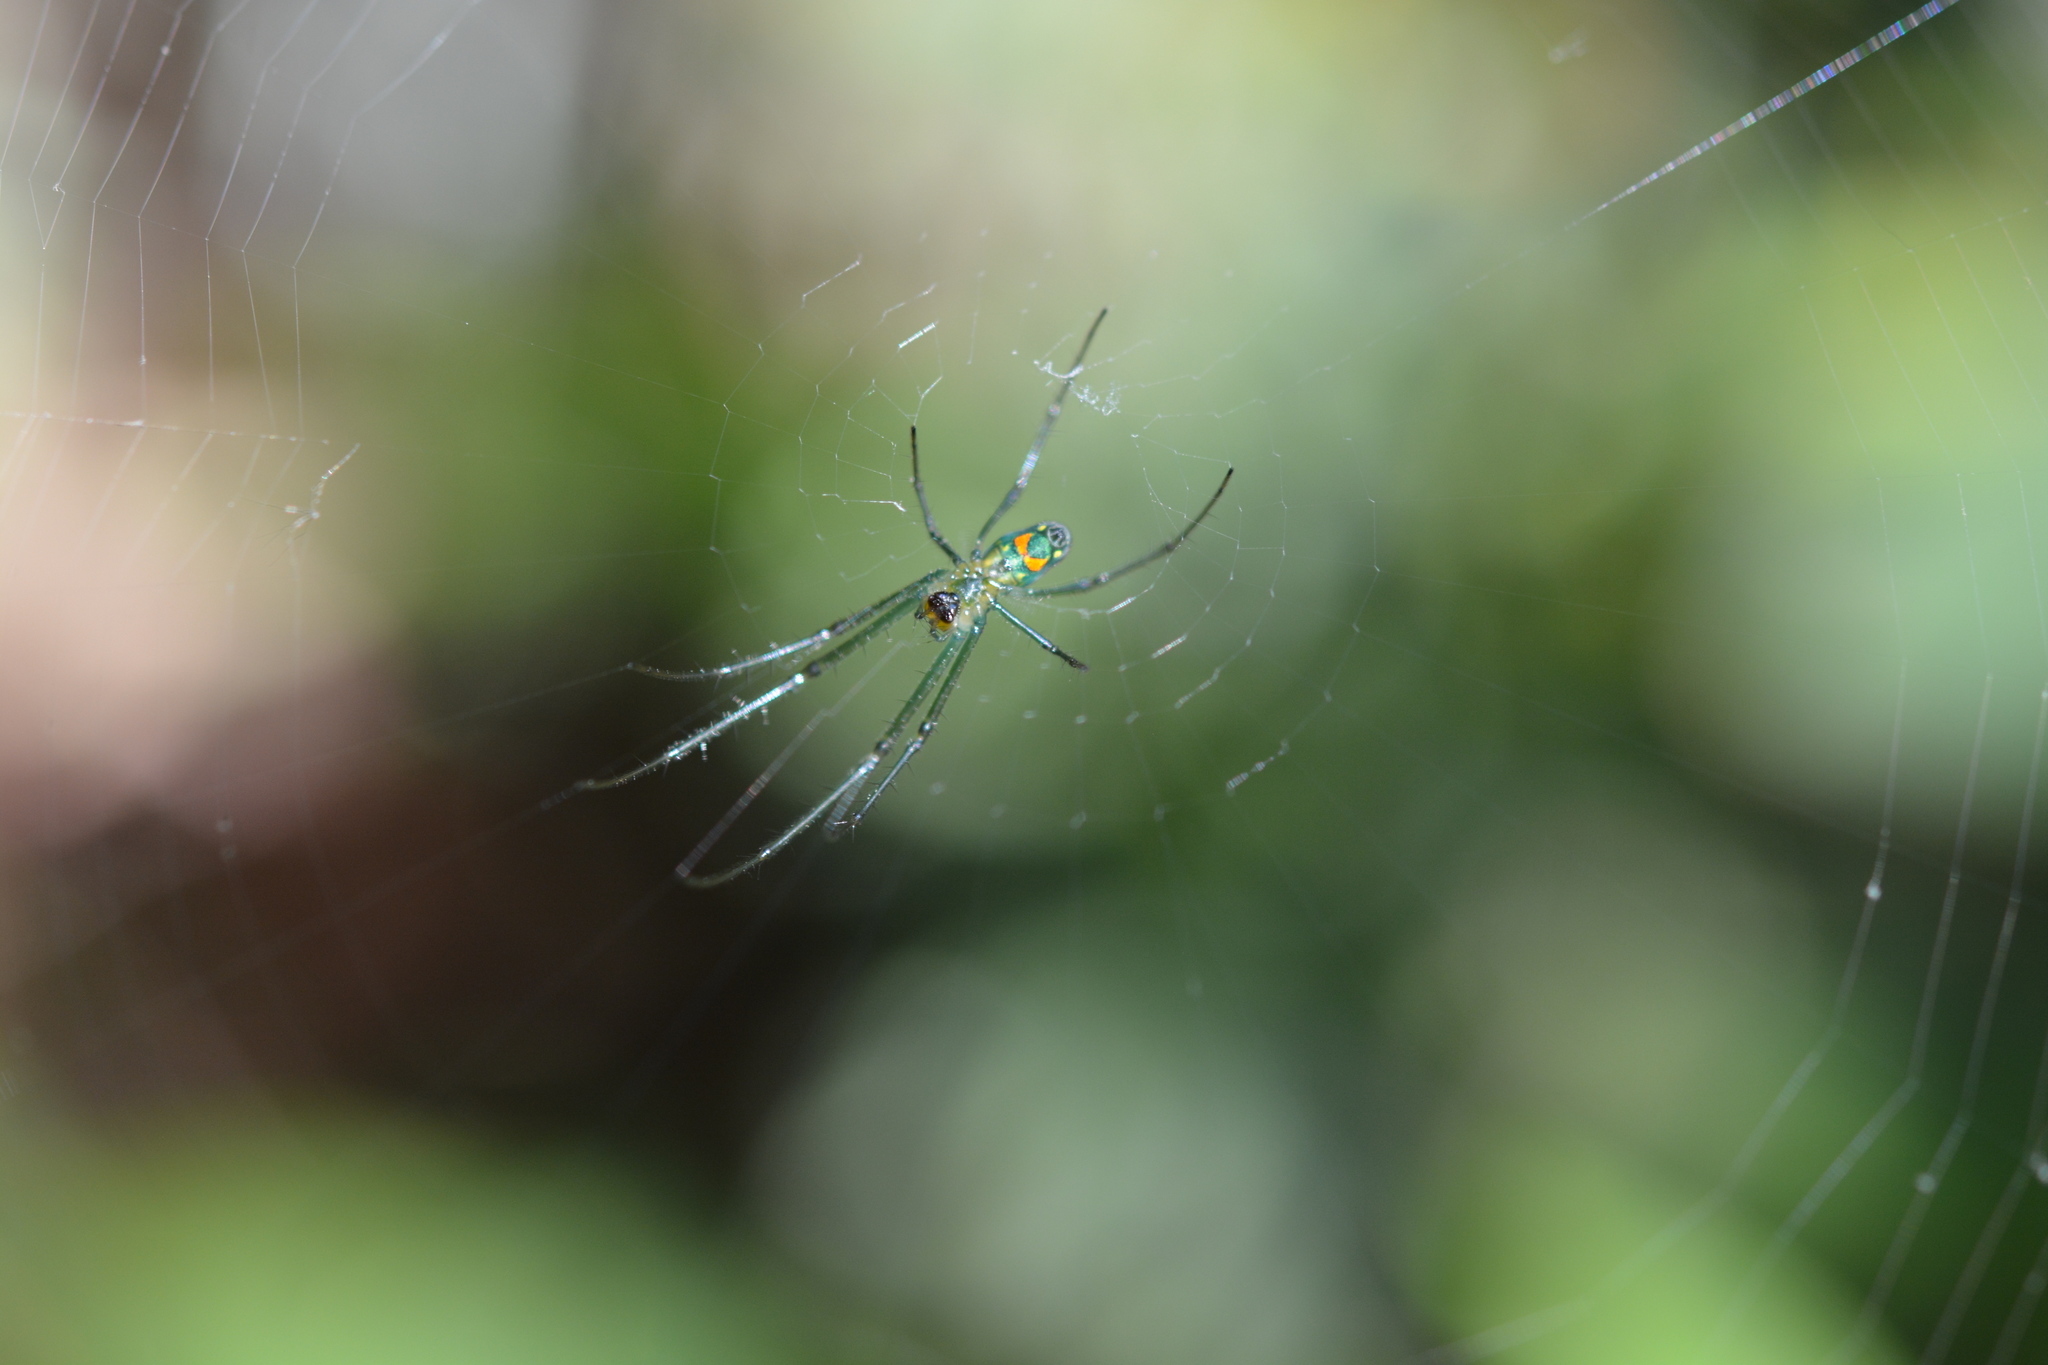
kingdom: Animalia
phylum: Arthropoda
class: Arachnida
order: Araneae
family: Tetragnathidae
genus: Leucauge
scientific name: Leucauge argyrobapta
